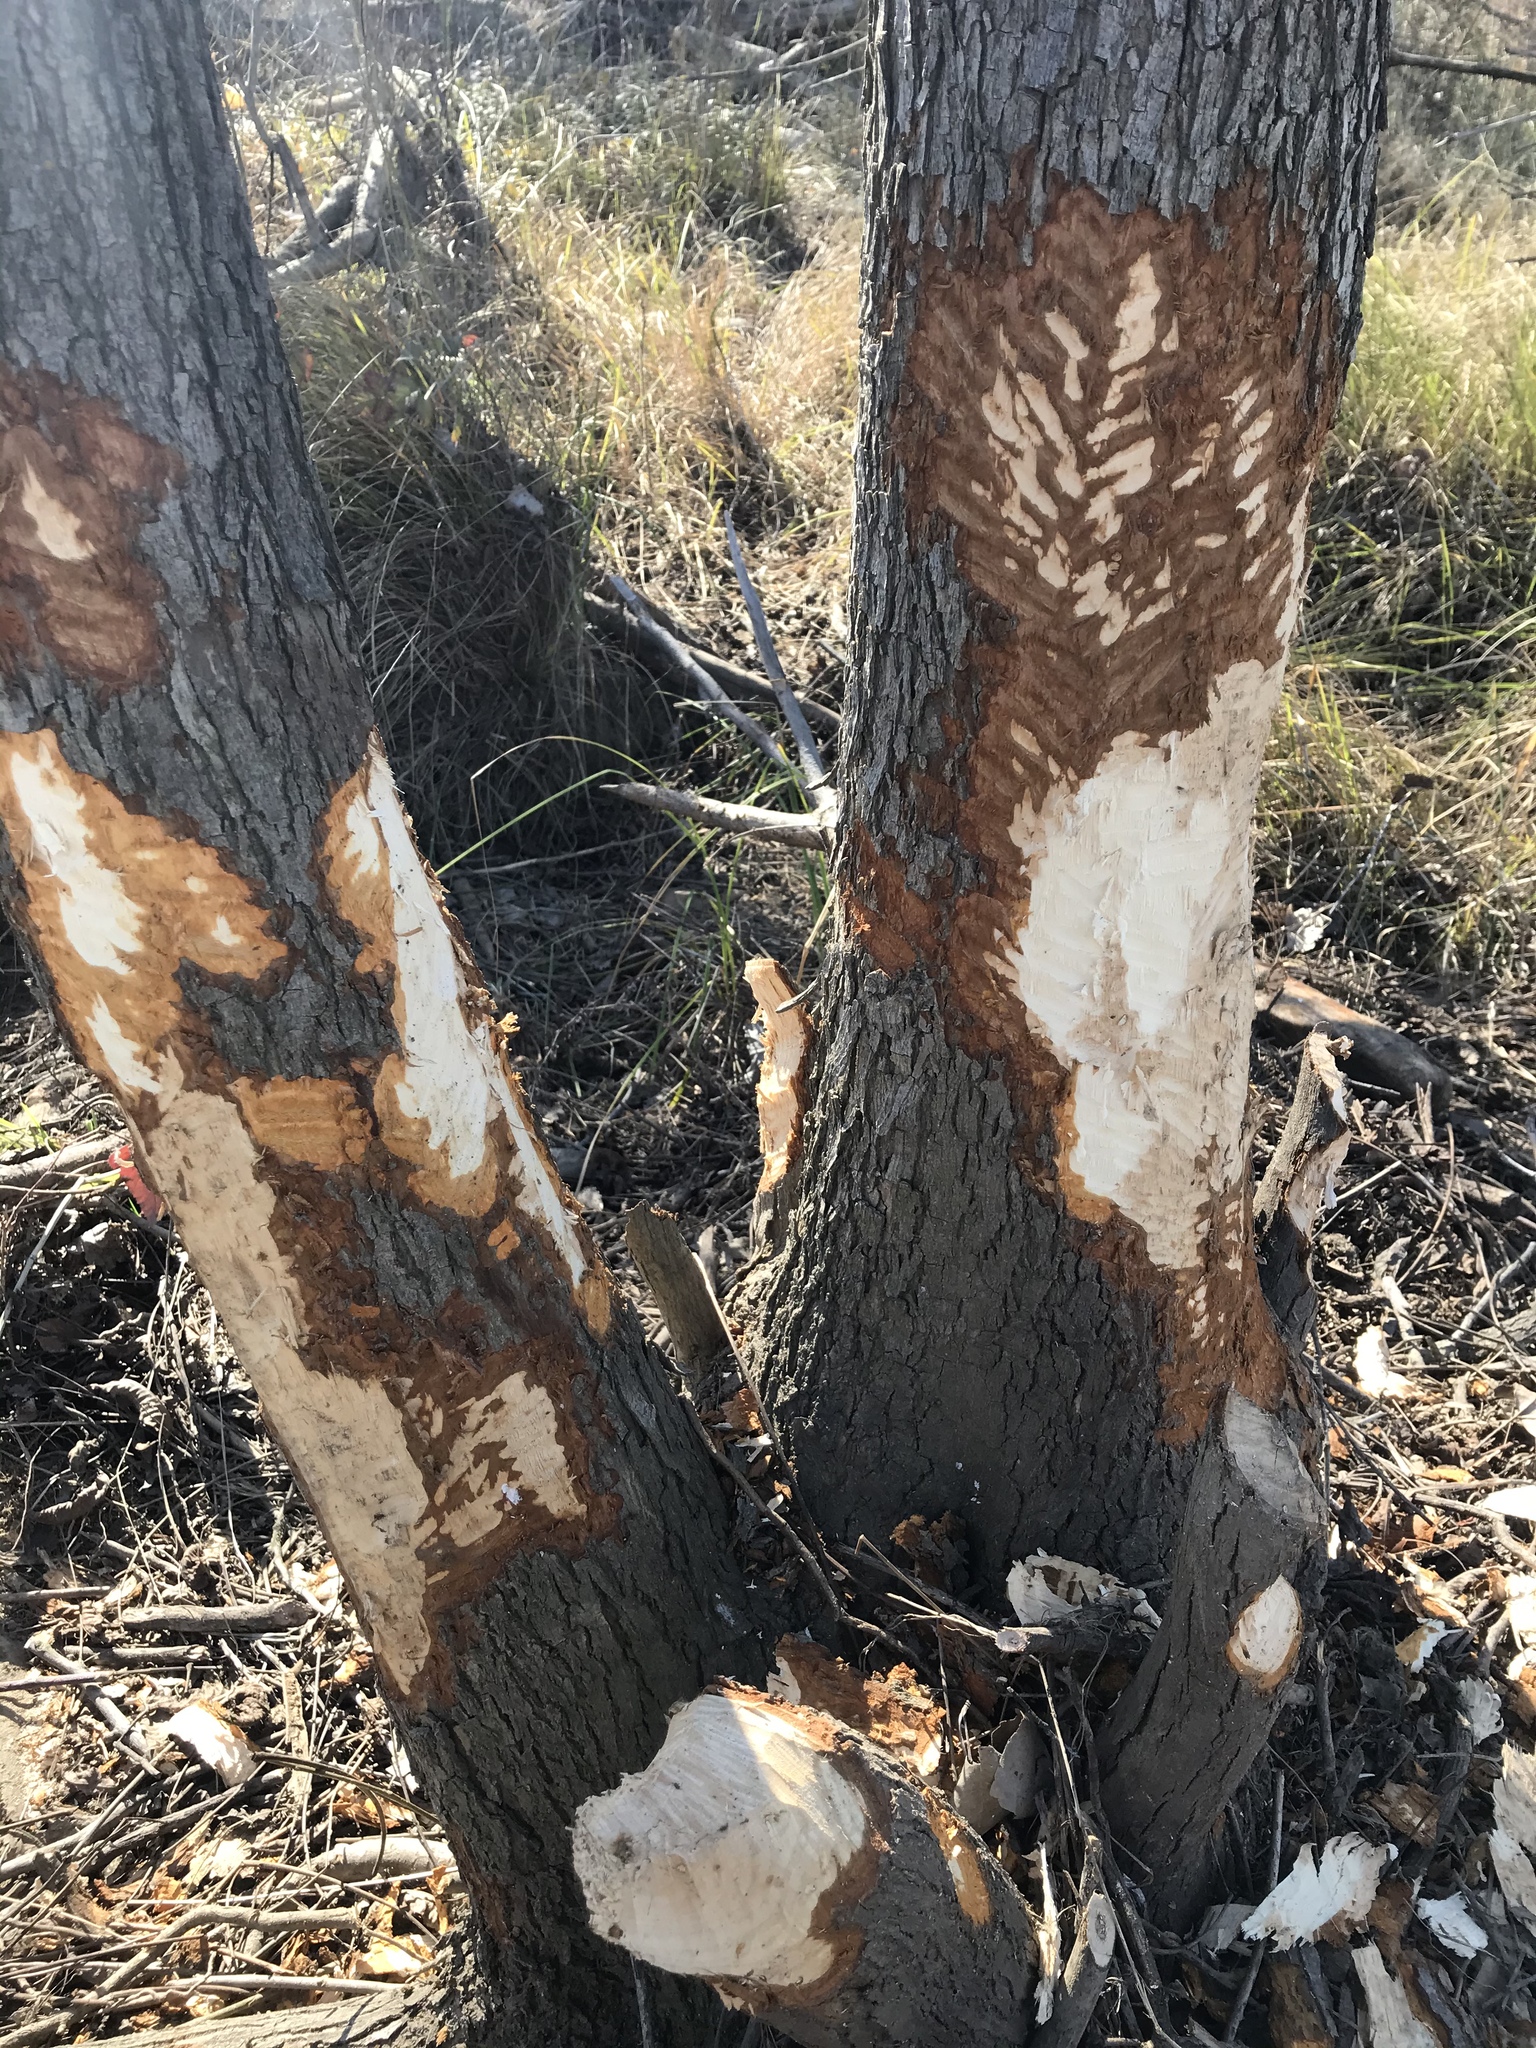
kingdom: Animalia
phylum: Chordata
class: Mammalia
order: Rodentia
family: Castoridae
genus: Castor
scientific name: Castor canadensis
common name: American beaver
